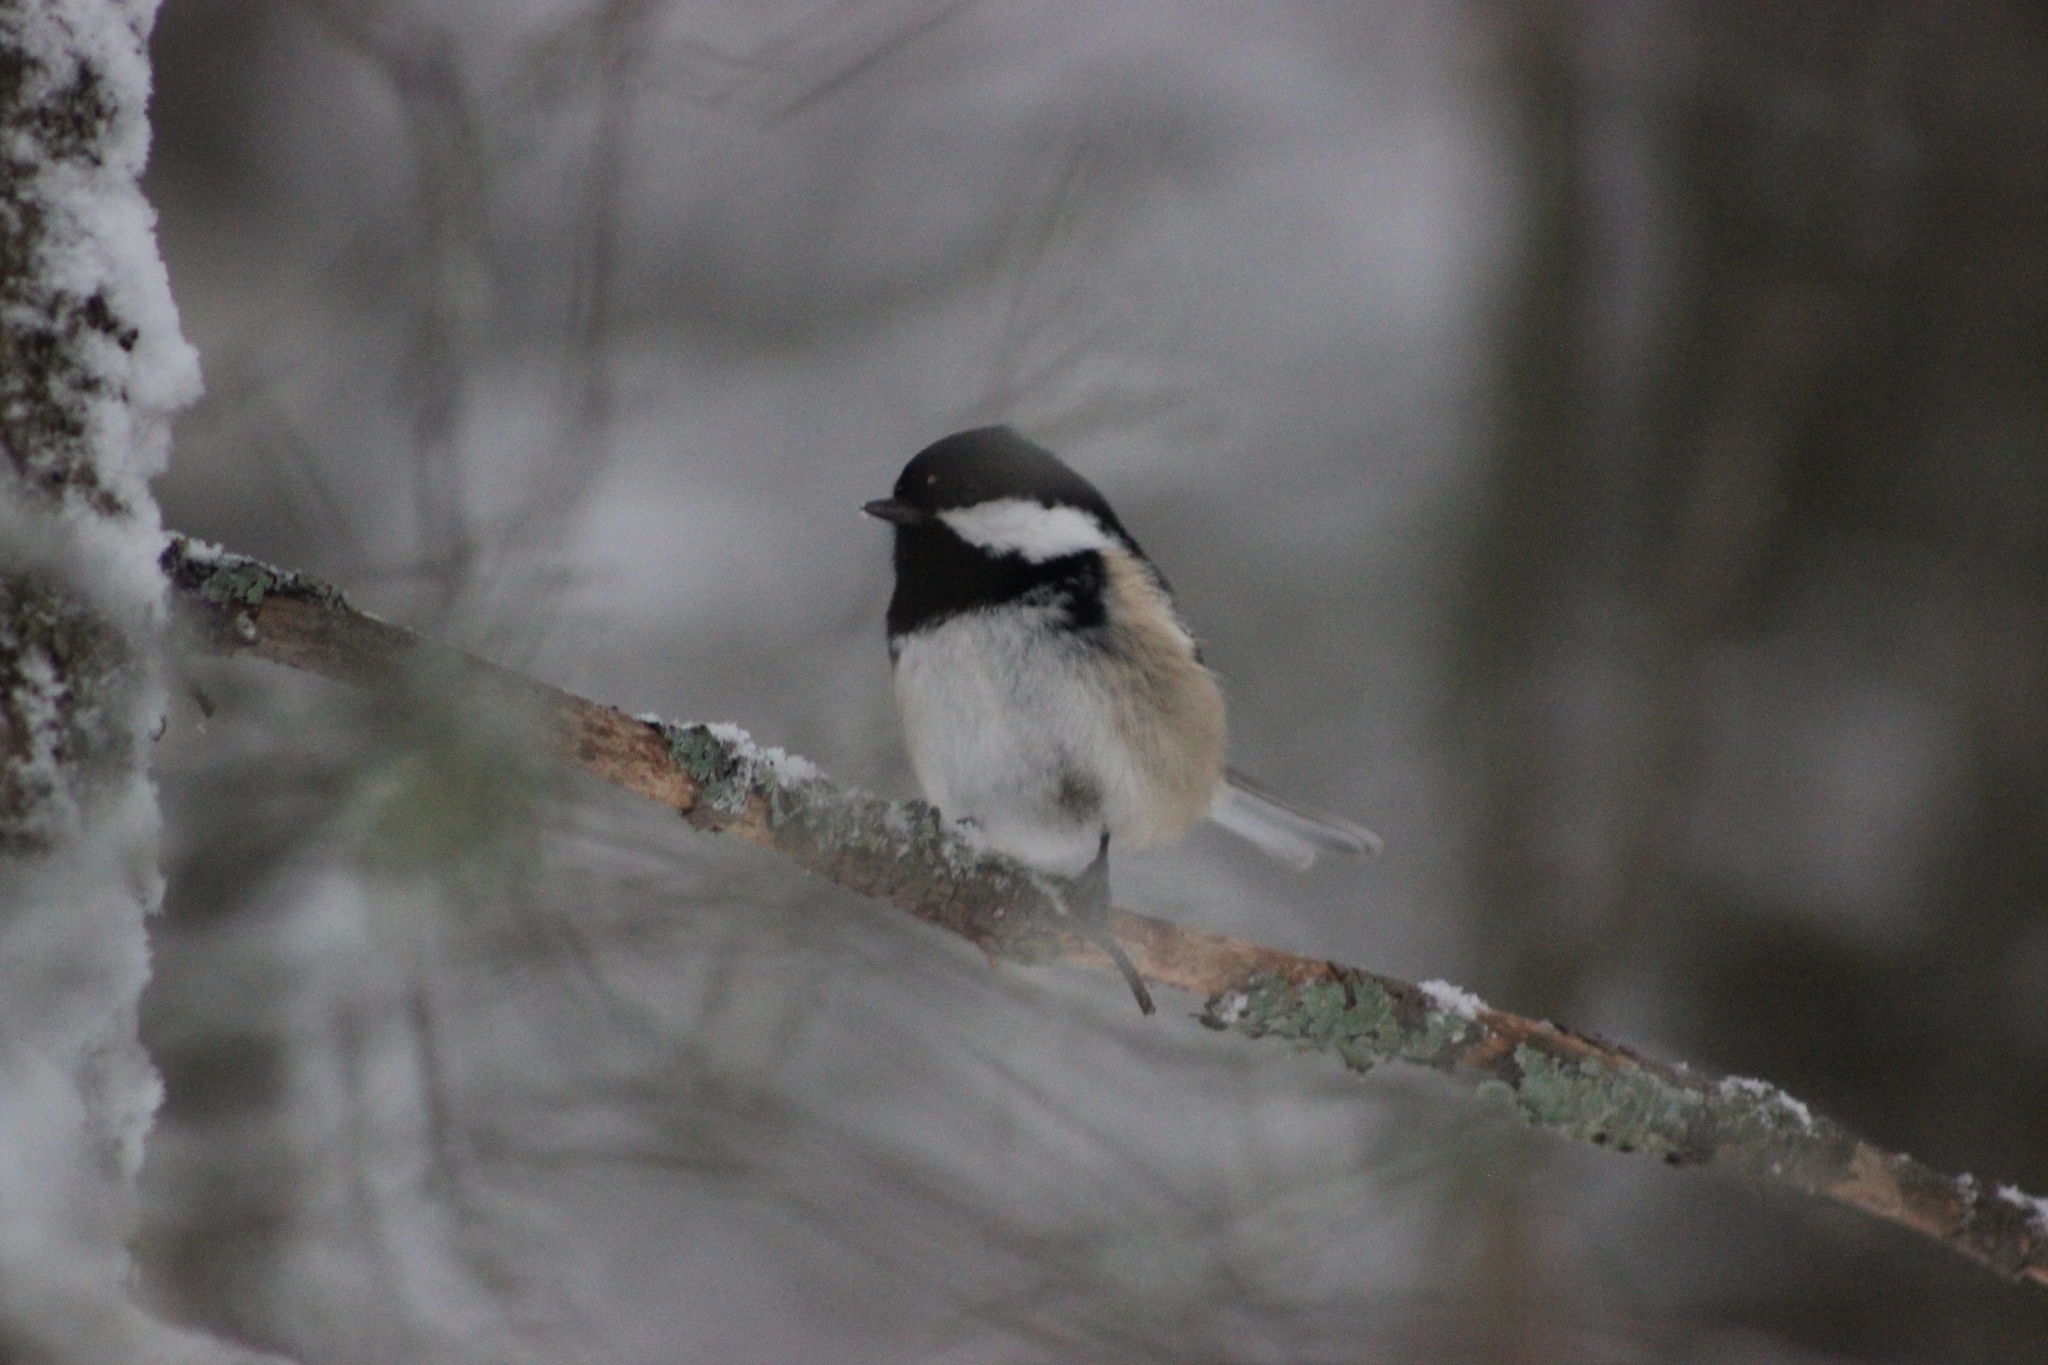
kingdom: Animalia
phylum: Chordata
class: Aves
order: Passeriformes
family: Paridae
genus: Periparus
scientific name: Periparus ater
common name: Coal tit
